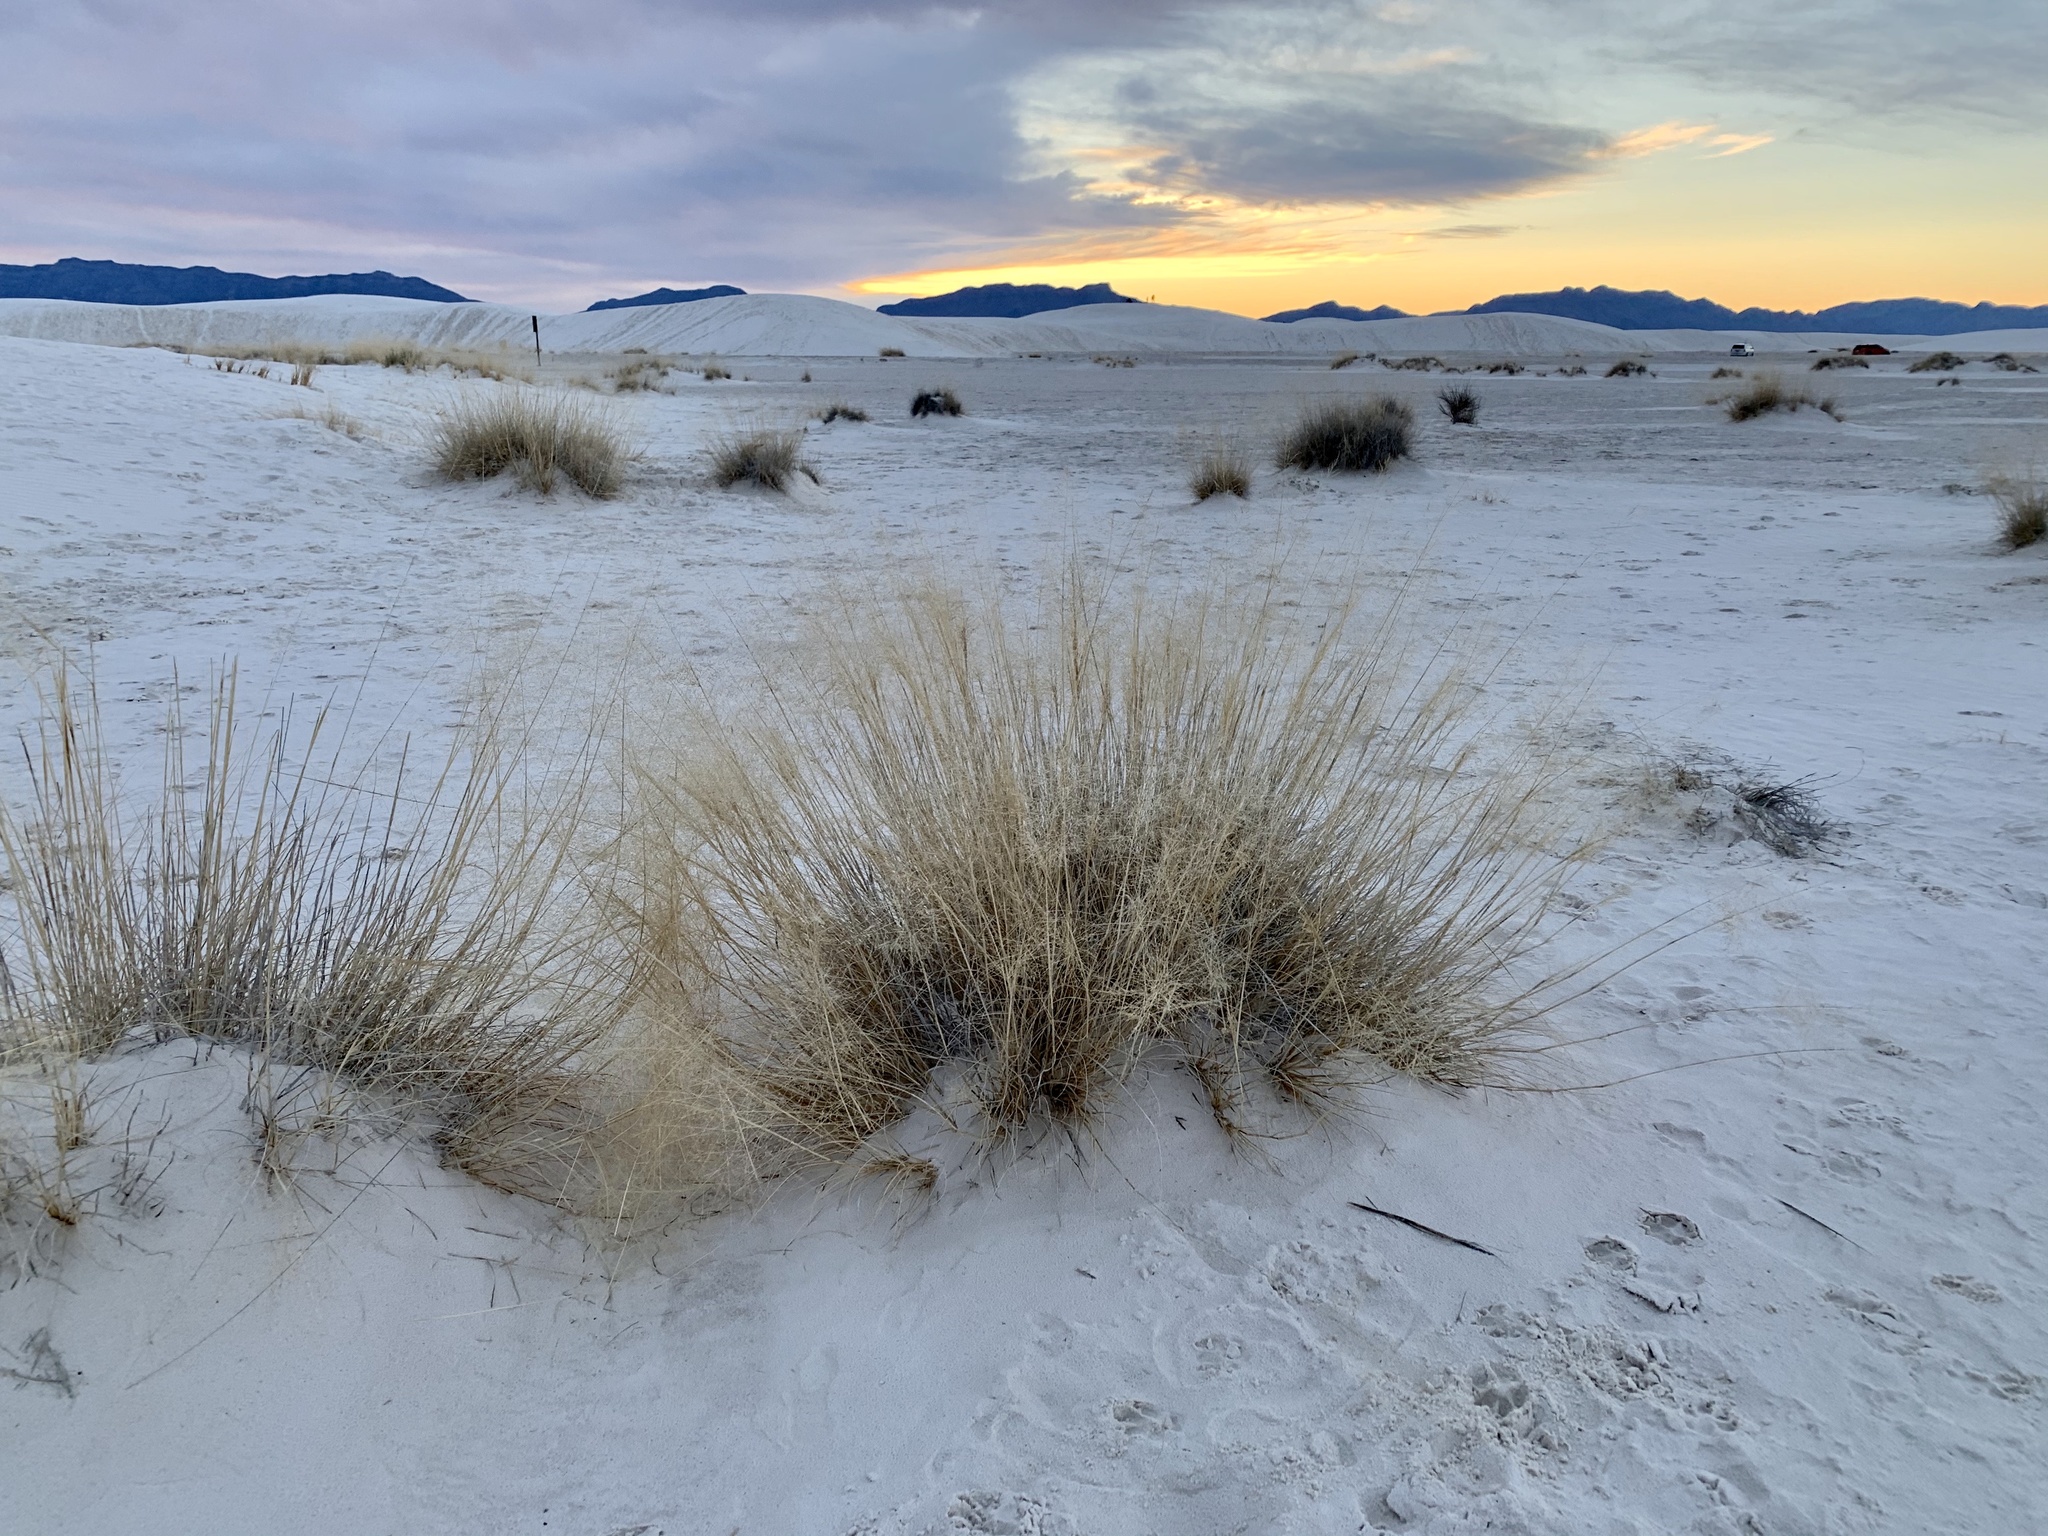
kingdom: Plantae
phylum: Tracheophyta
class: Liliopsida
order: Poales
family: Poaceae
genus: Sporobolus
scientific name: Sporobolus airoides
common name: Alkali sacaton
